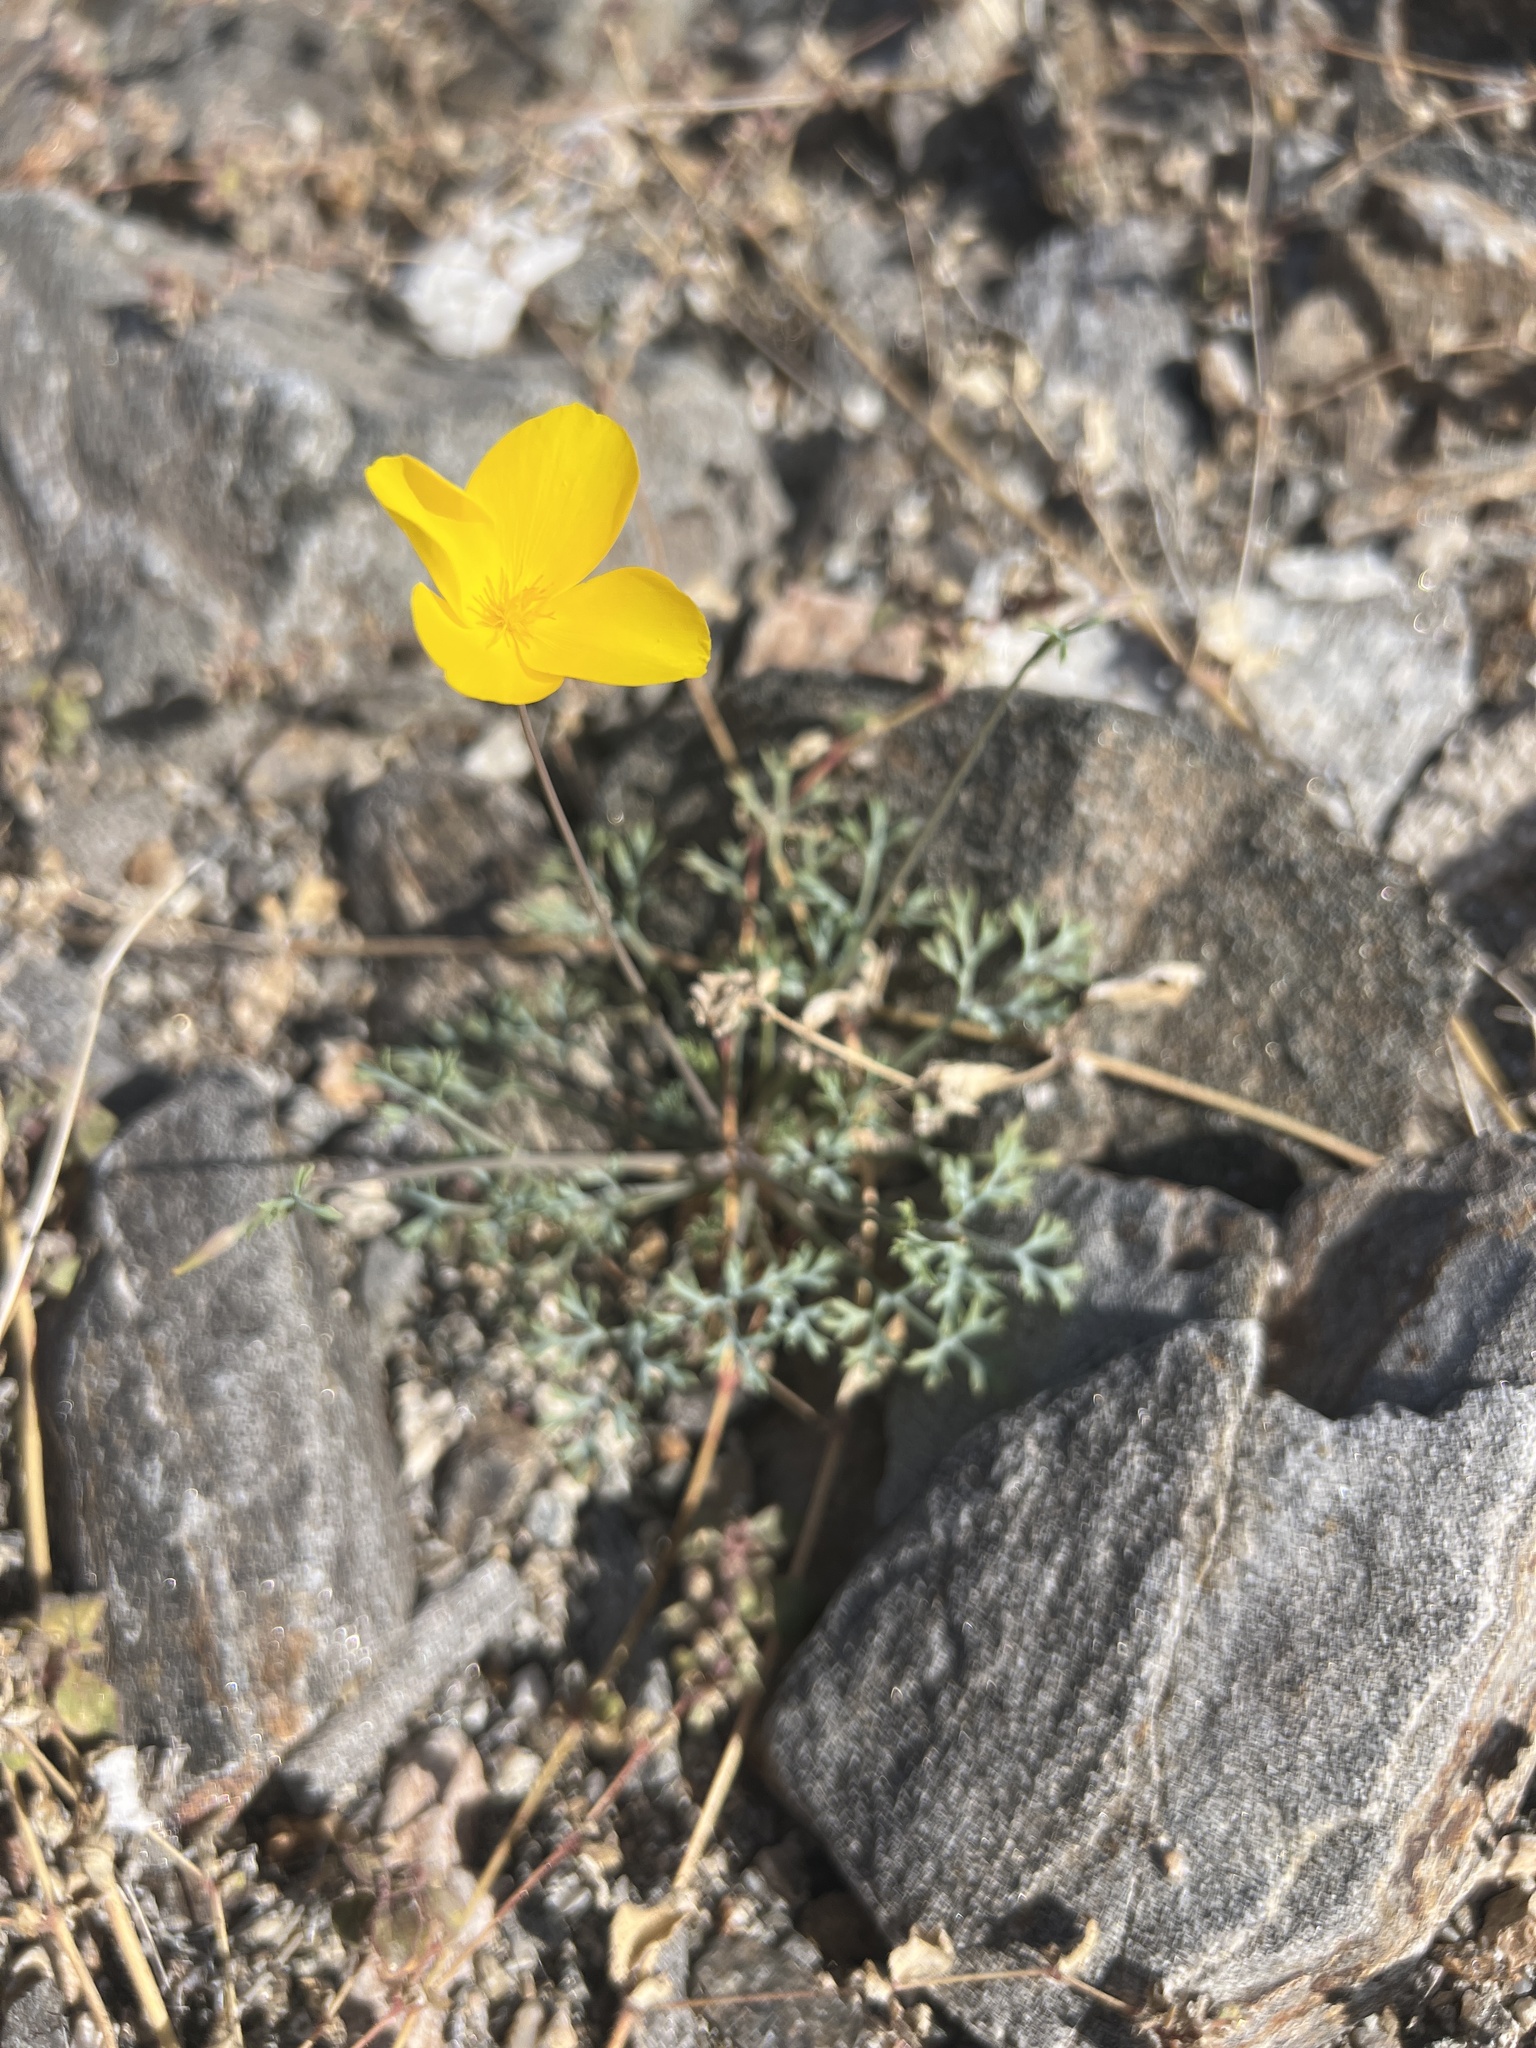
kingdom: Plantae
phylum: Tracheophyta
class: Magnoliopsida
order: Ranunculales
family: Papaveraceae
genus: Eschscholzia
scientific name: Eschscholzia parishii
